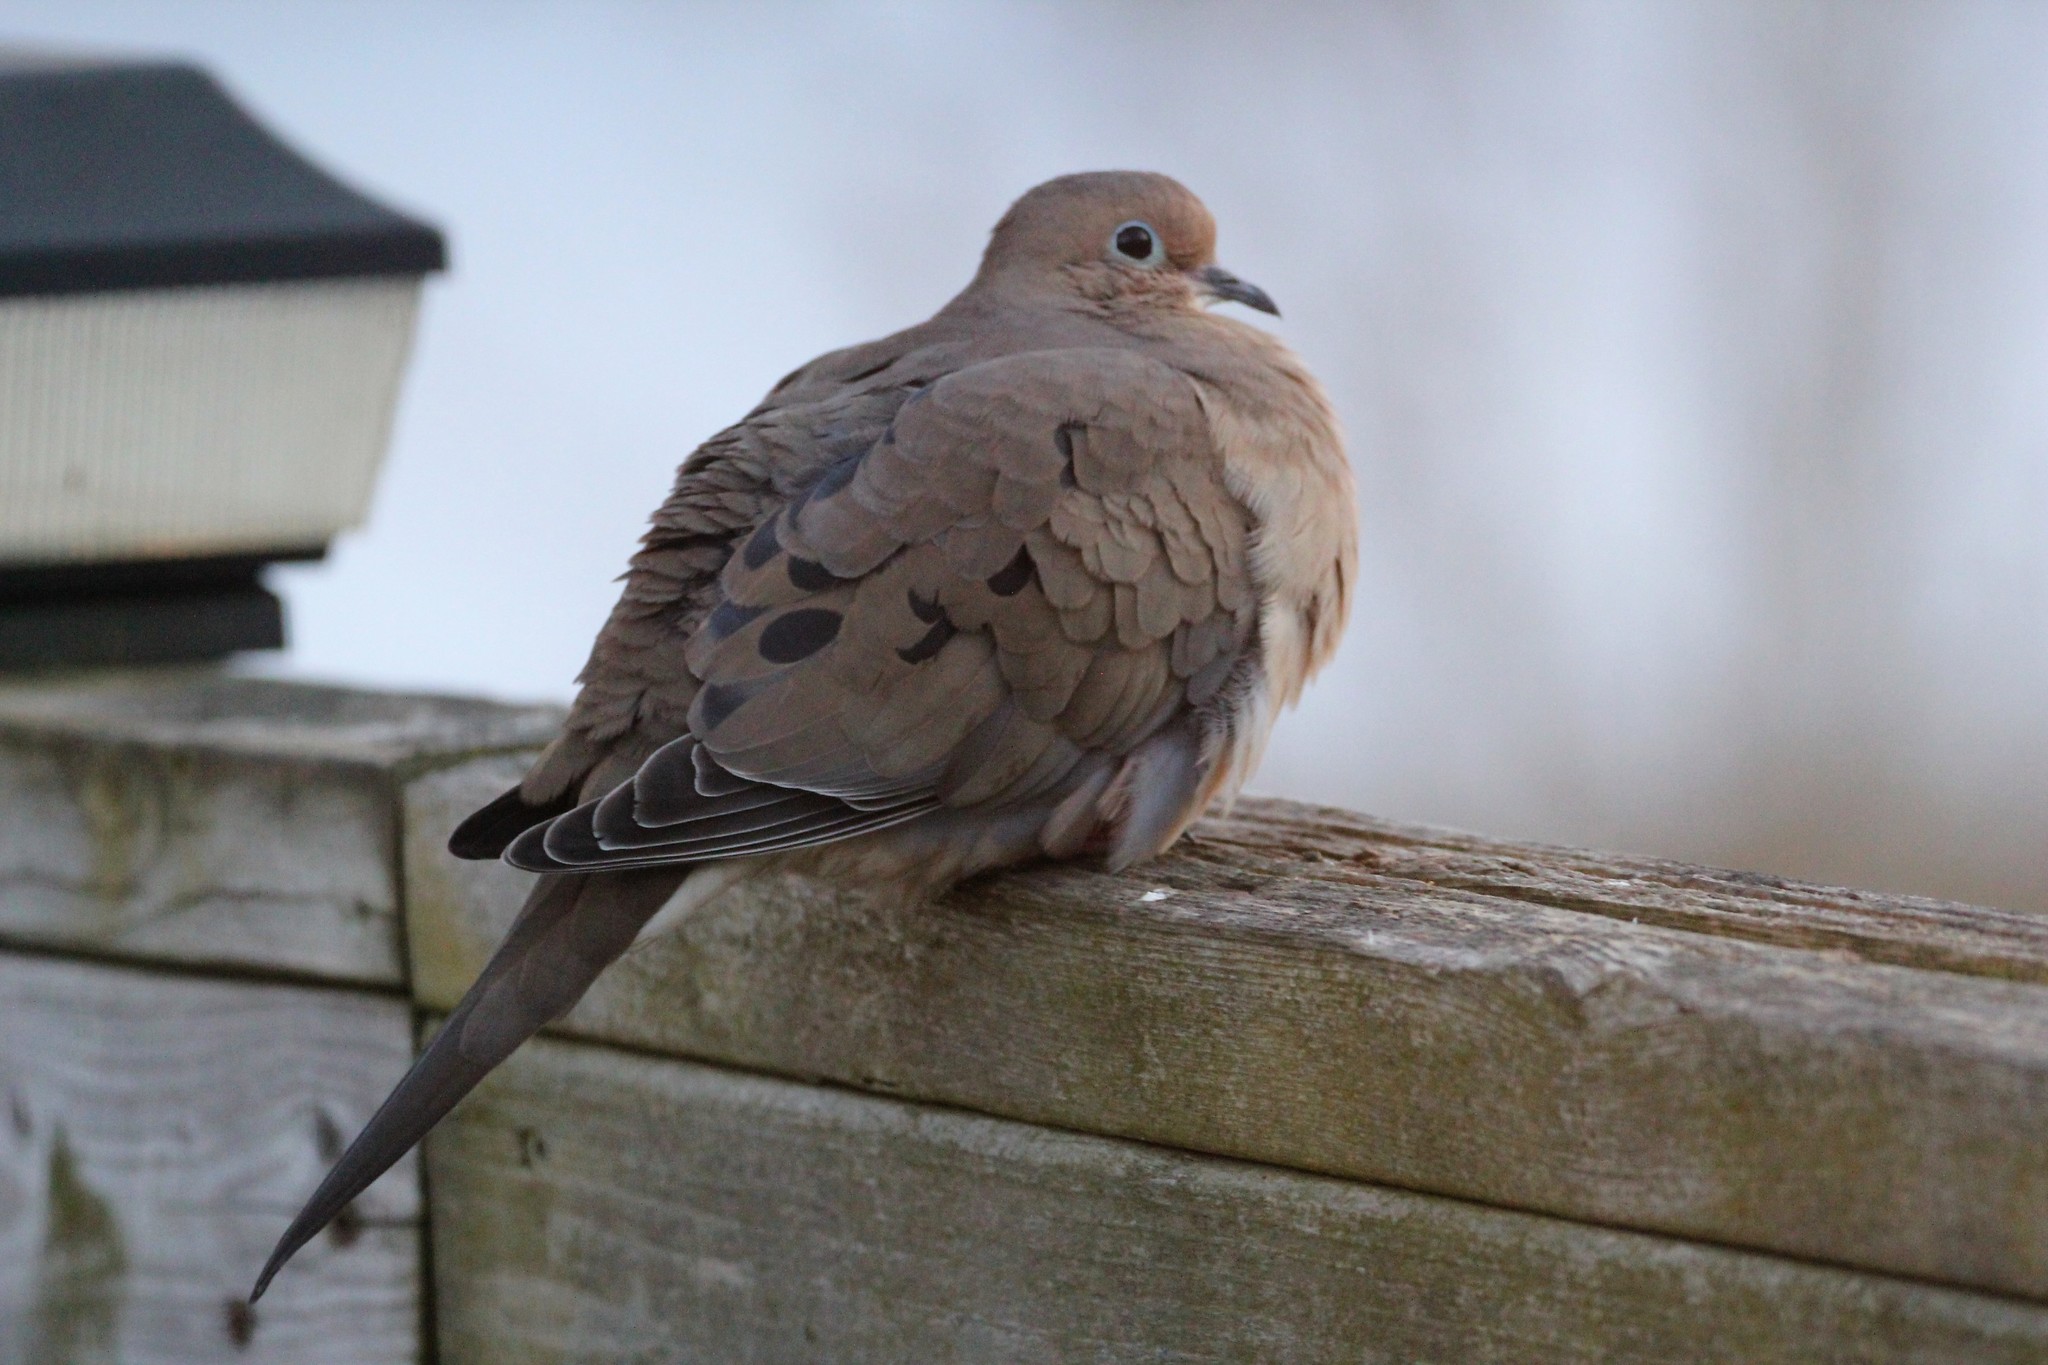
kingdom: Animalia
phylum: Chordata
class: Aves
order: Columbiformes
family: Columbidae
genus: Zenaida
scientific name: Zenaida macroura
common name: Mourning dove
